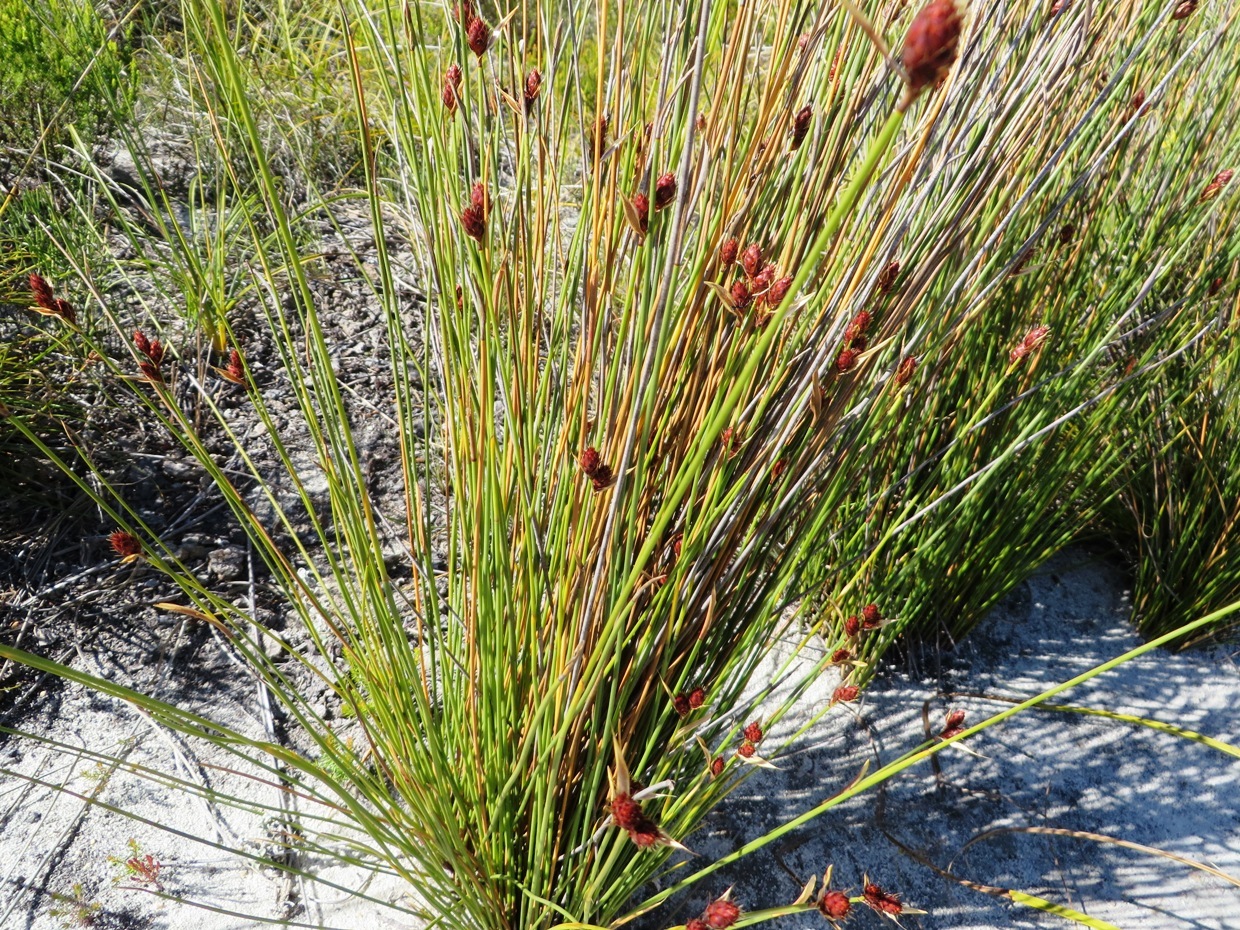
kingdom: Plantae
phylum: Tracheophyta
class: Liliopsida
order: Poales
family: Restionaceae
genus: Hypodiscus
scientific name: Hypodiscus alboaristatus
